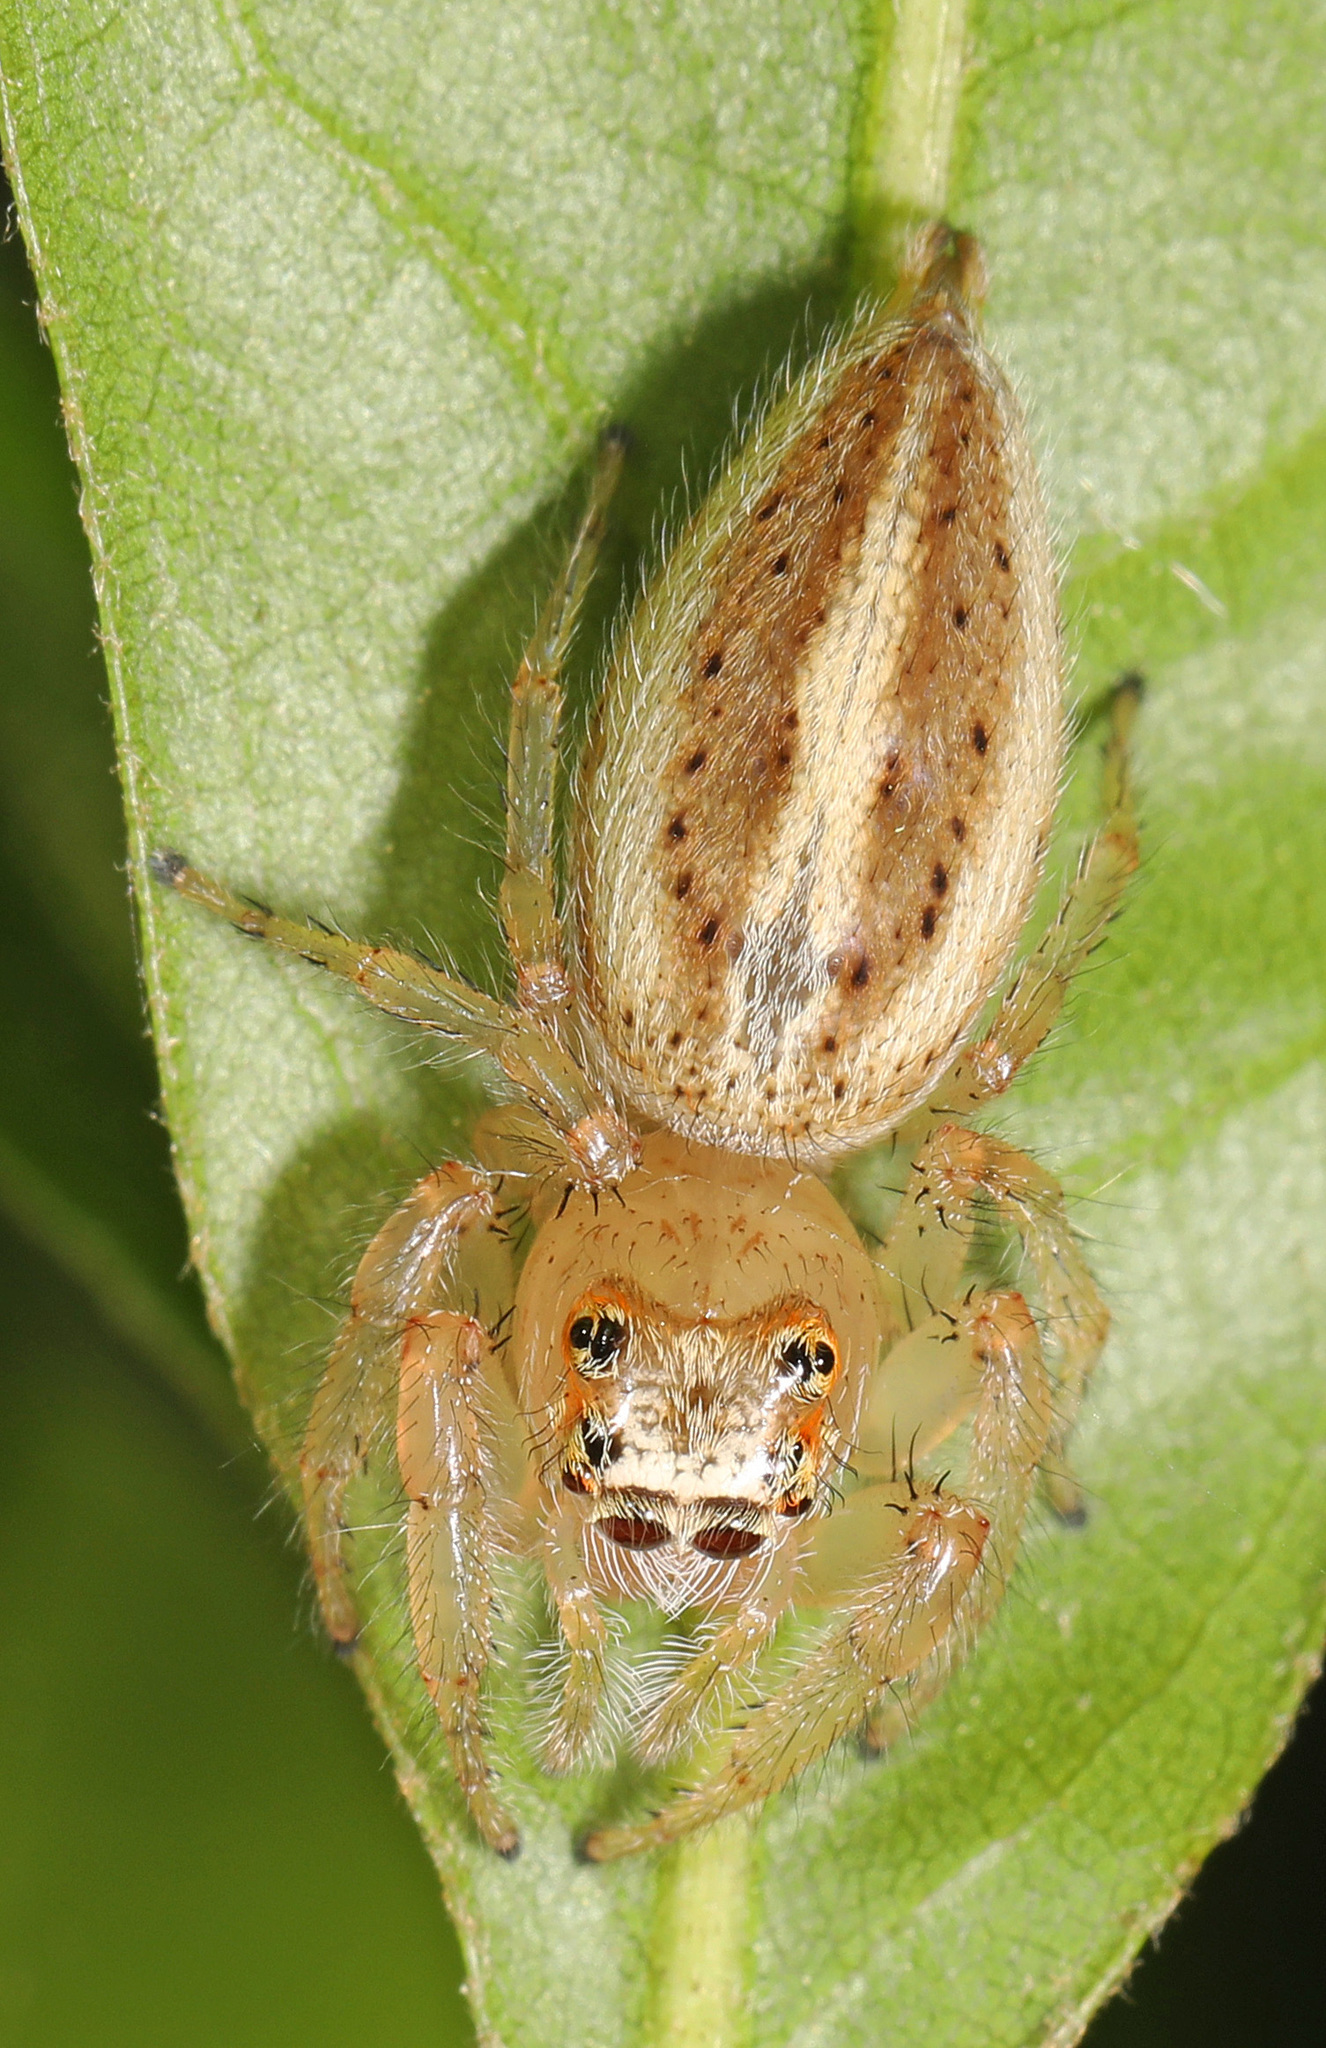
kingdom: Animalia
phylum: Arthropoda
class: Arachnida
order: Araneae
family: Salticidae
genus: Colonus
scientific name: Colonus sylvanus
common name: Jumping spiders
